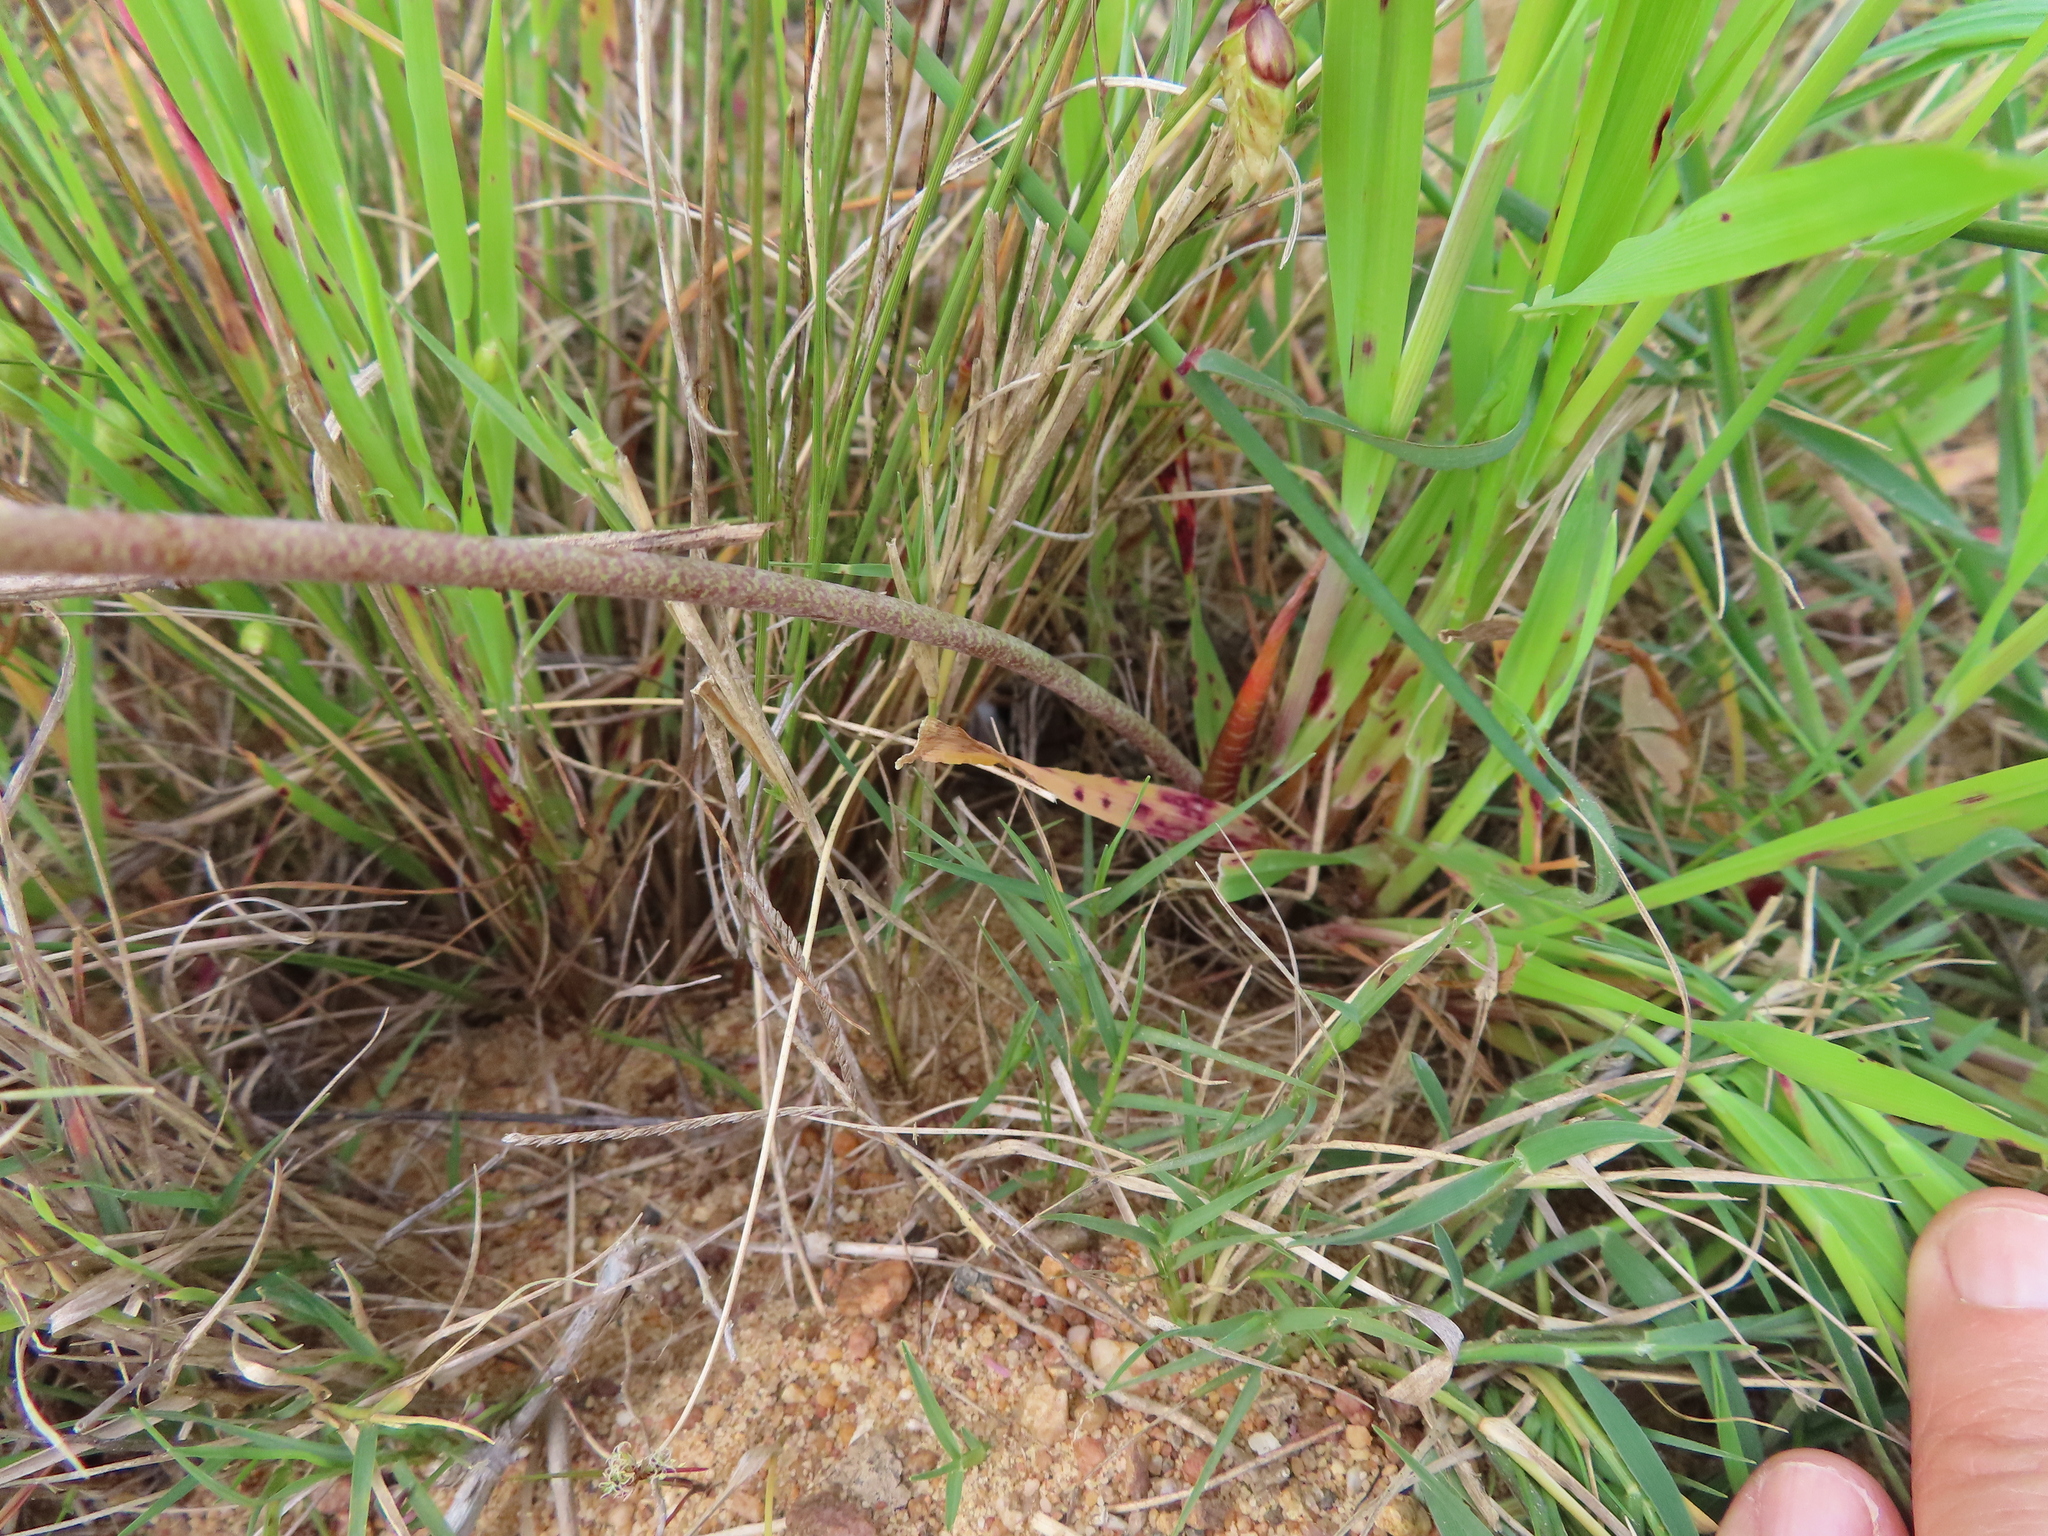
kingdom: Plantae
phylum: Tracheophyta
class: Liliopsida
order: Asparagales
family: Asparagaceae
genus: Lachenalia
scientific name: Lachenalia unifolia
